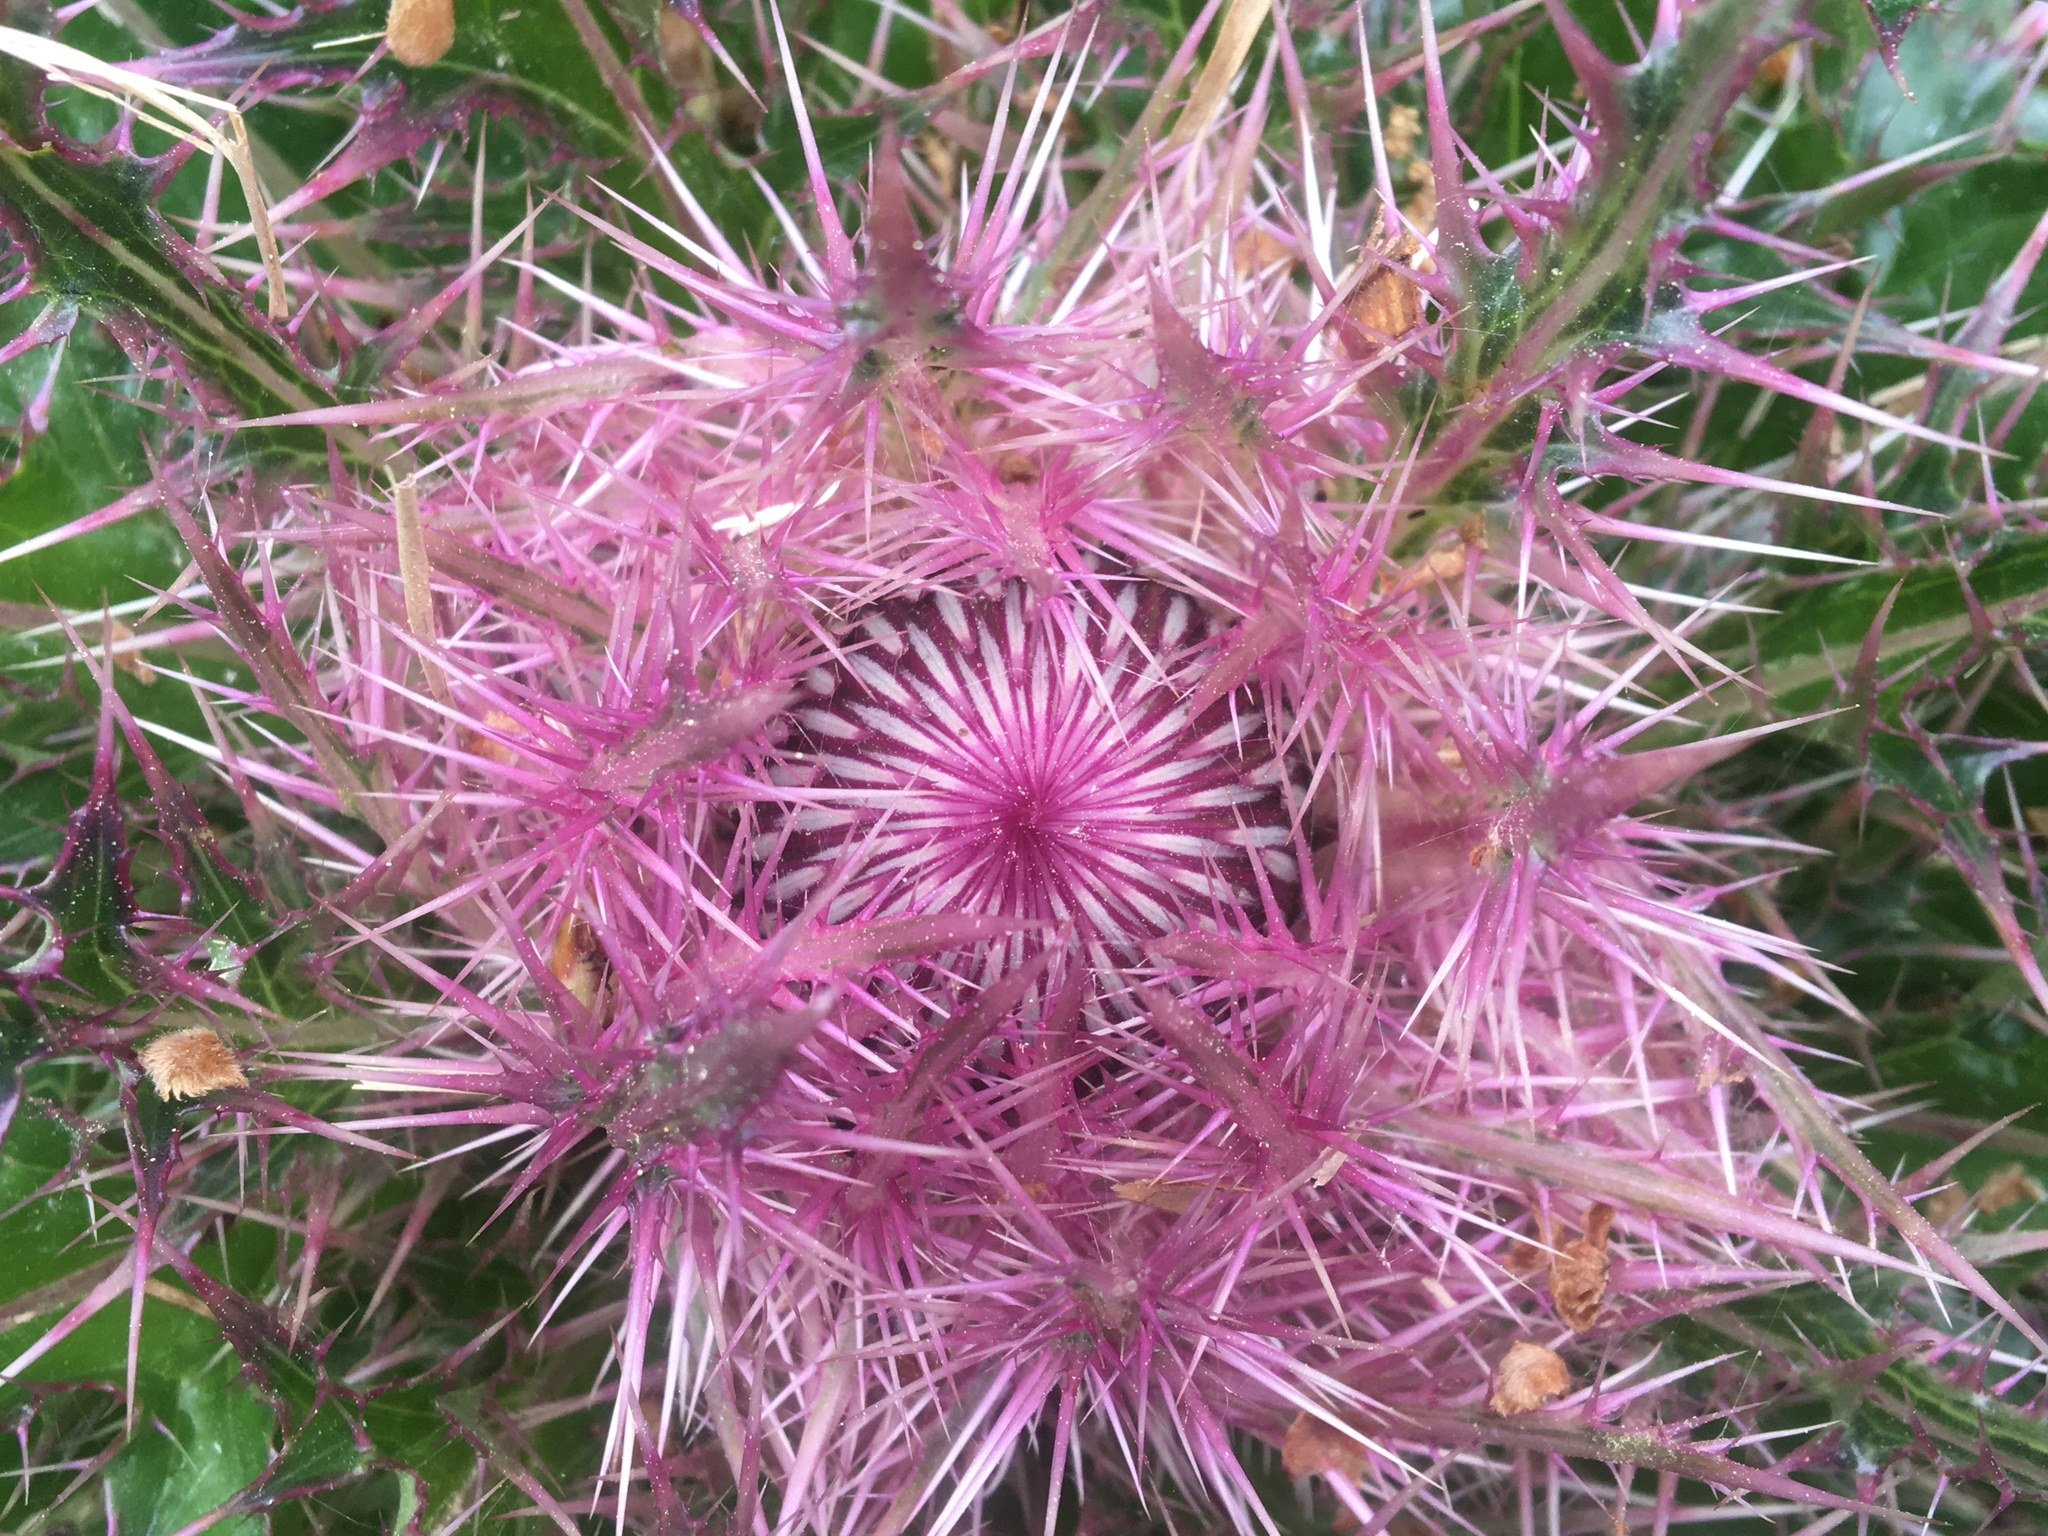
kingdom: Plantae
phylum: Tracheophyta
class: Magnoliopsida
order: Asterales
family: Asteraceae
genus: Cirsium
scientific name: Cirsium horridulum
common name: Bristly thistle
